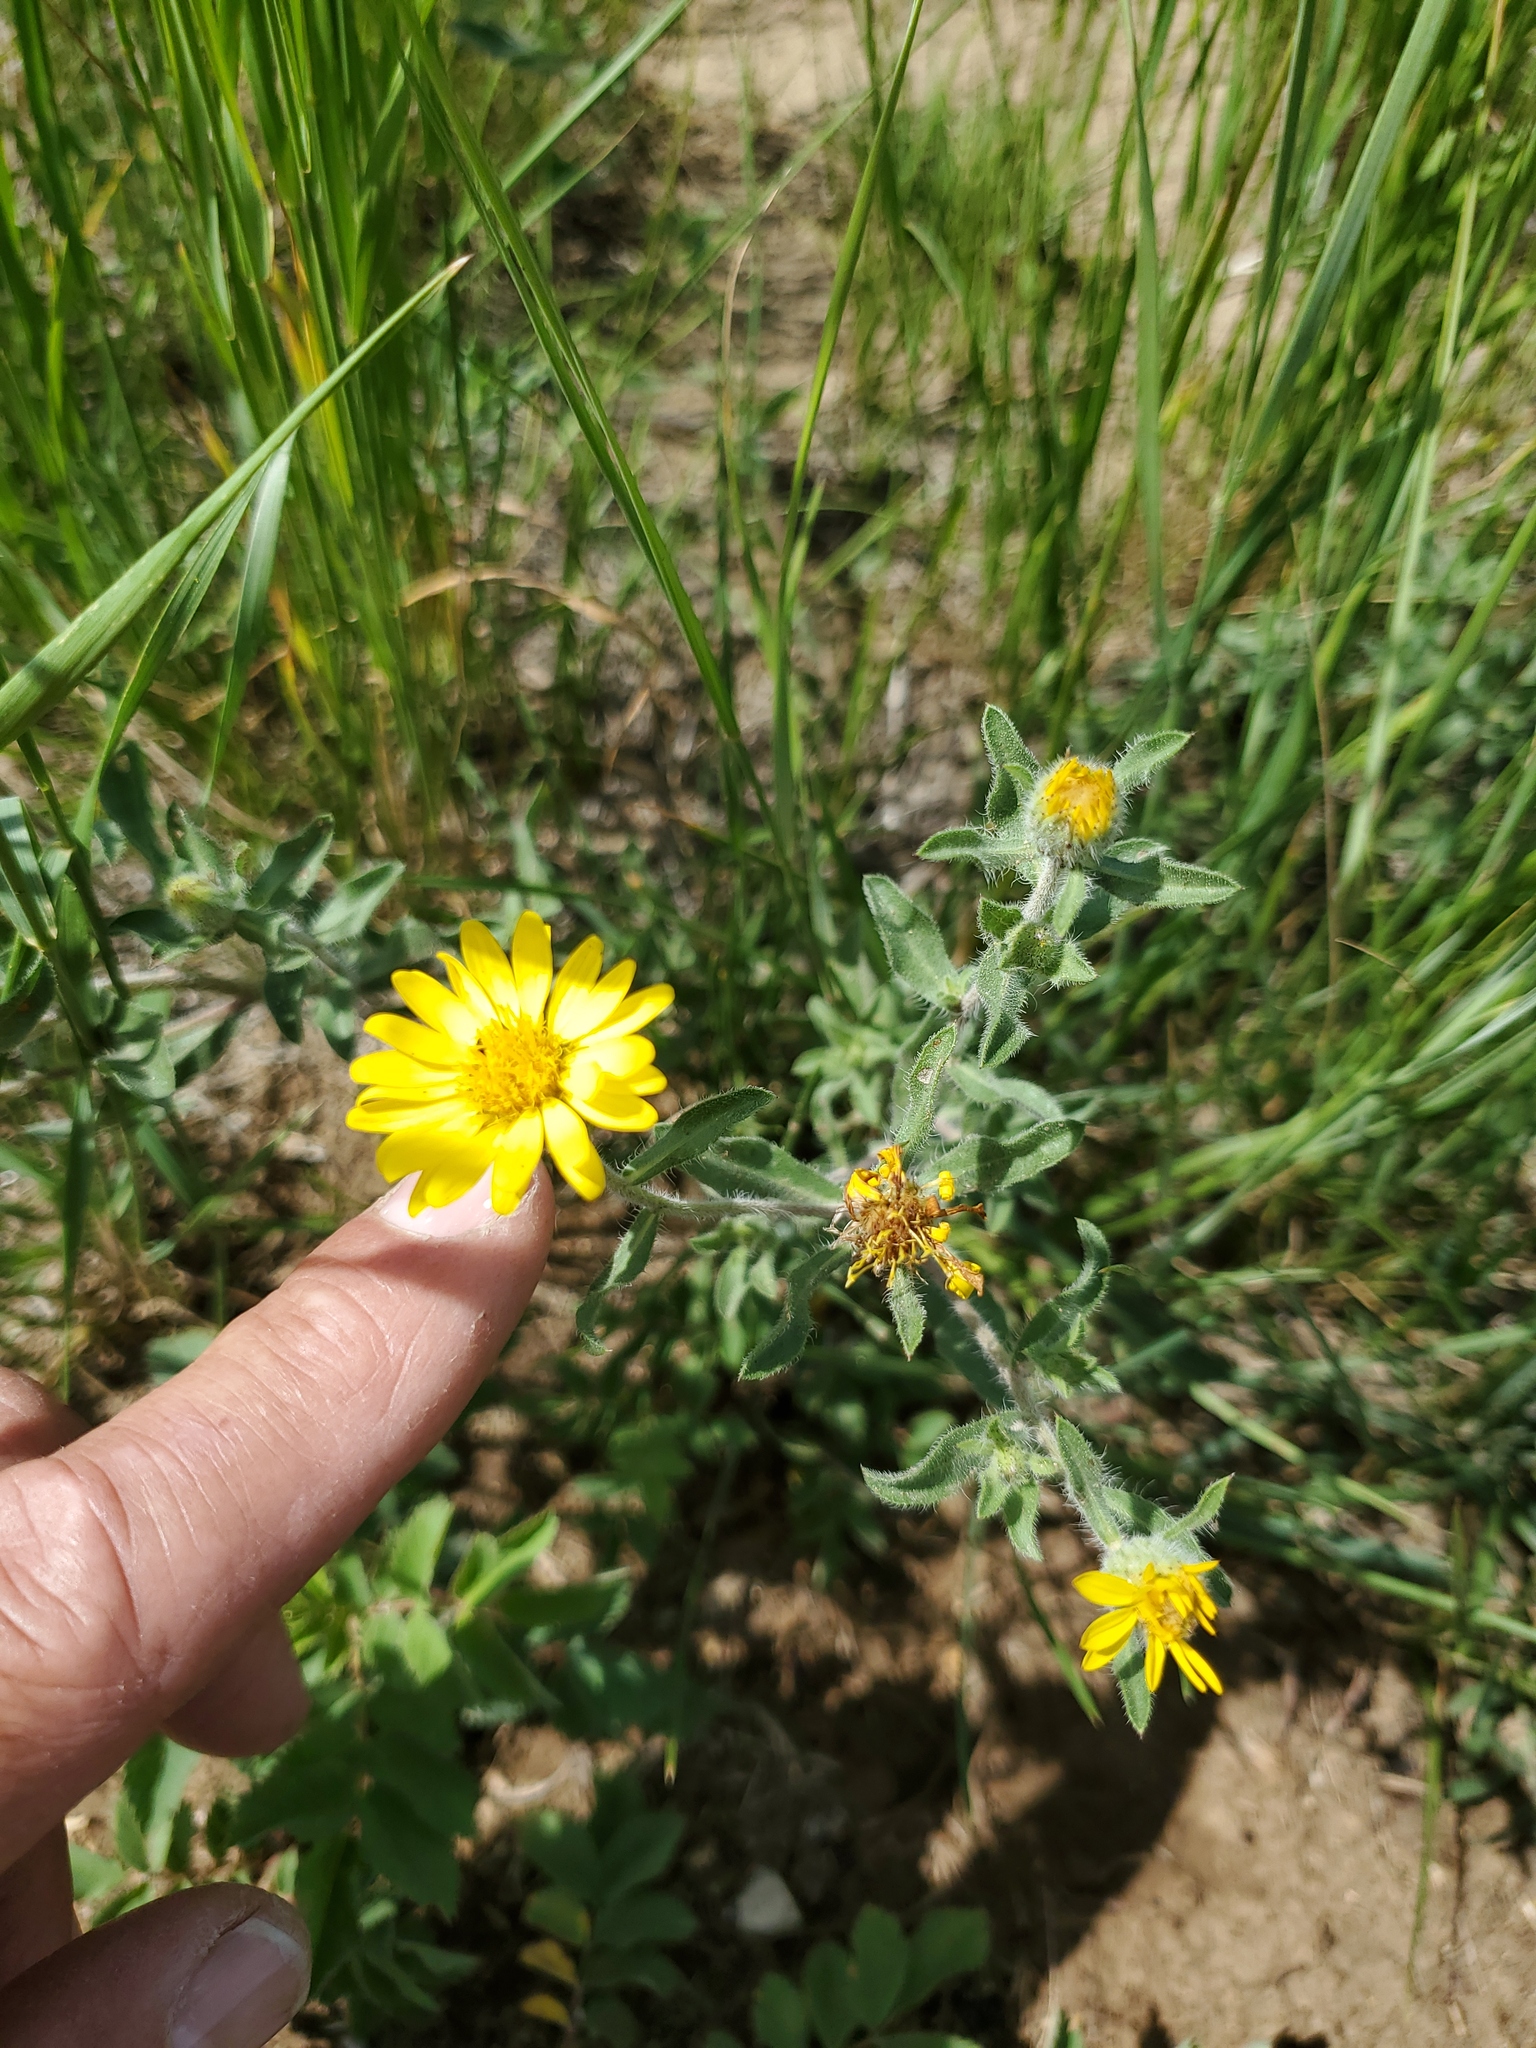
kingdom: Plantae
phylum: Tracheophyta
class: Magnoliopsida
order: Asterales
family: Asteraceae
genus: Heterotheca
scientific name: Heterotheca villosa
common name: Hairy false goldenaster
